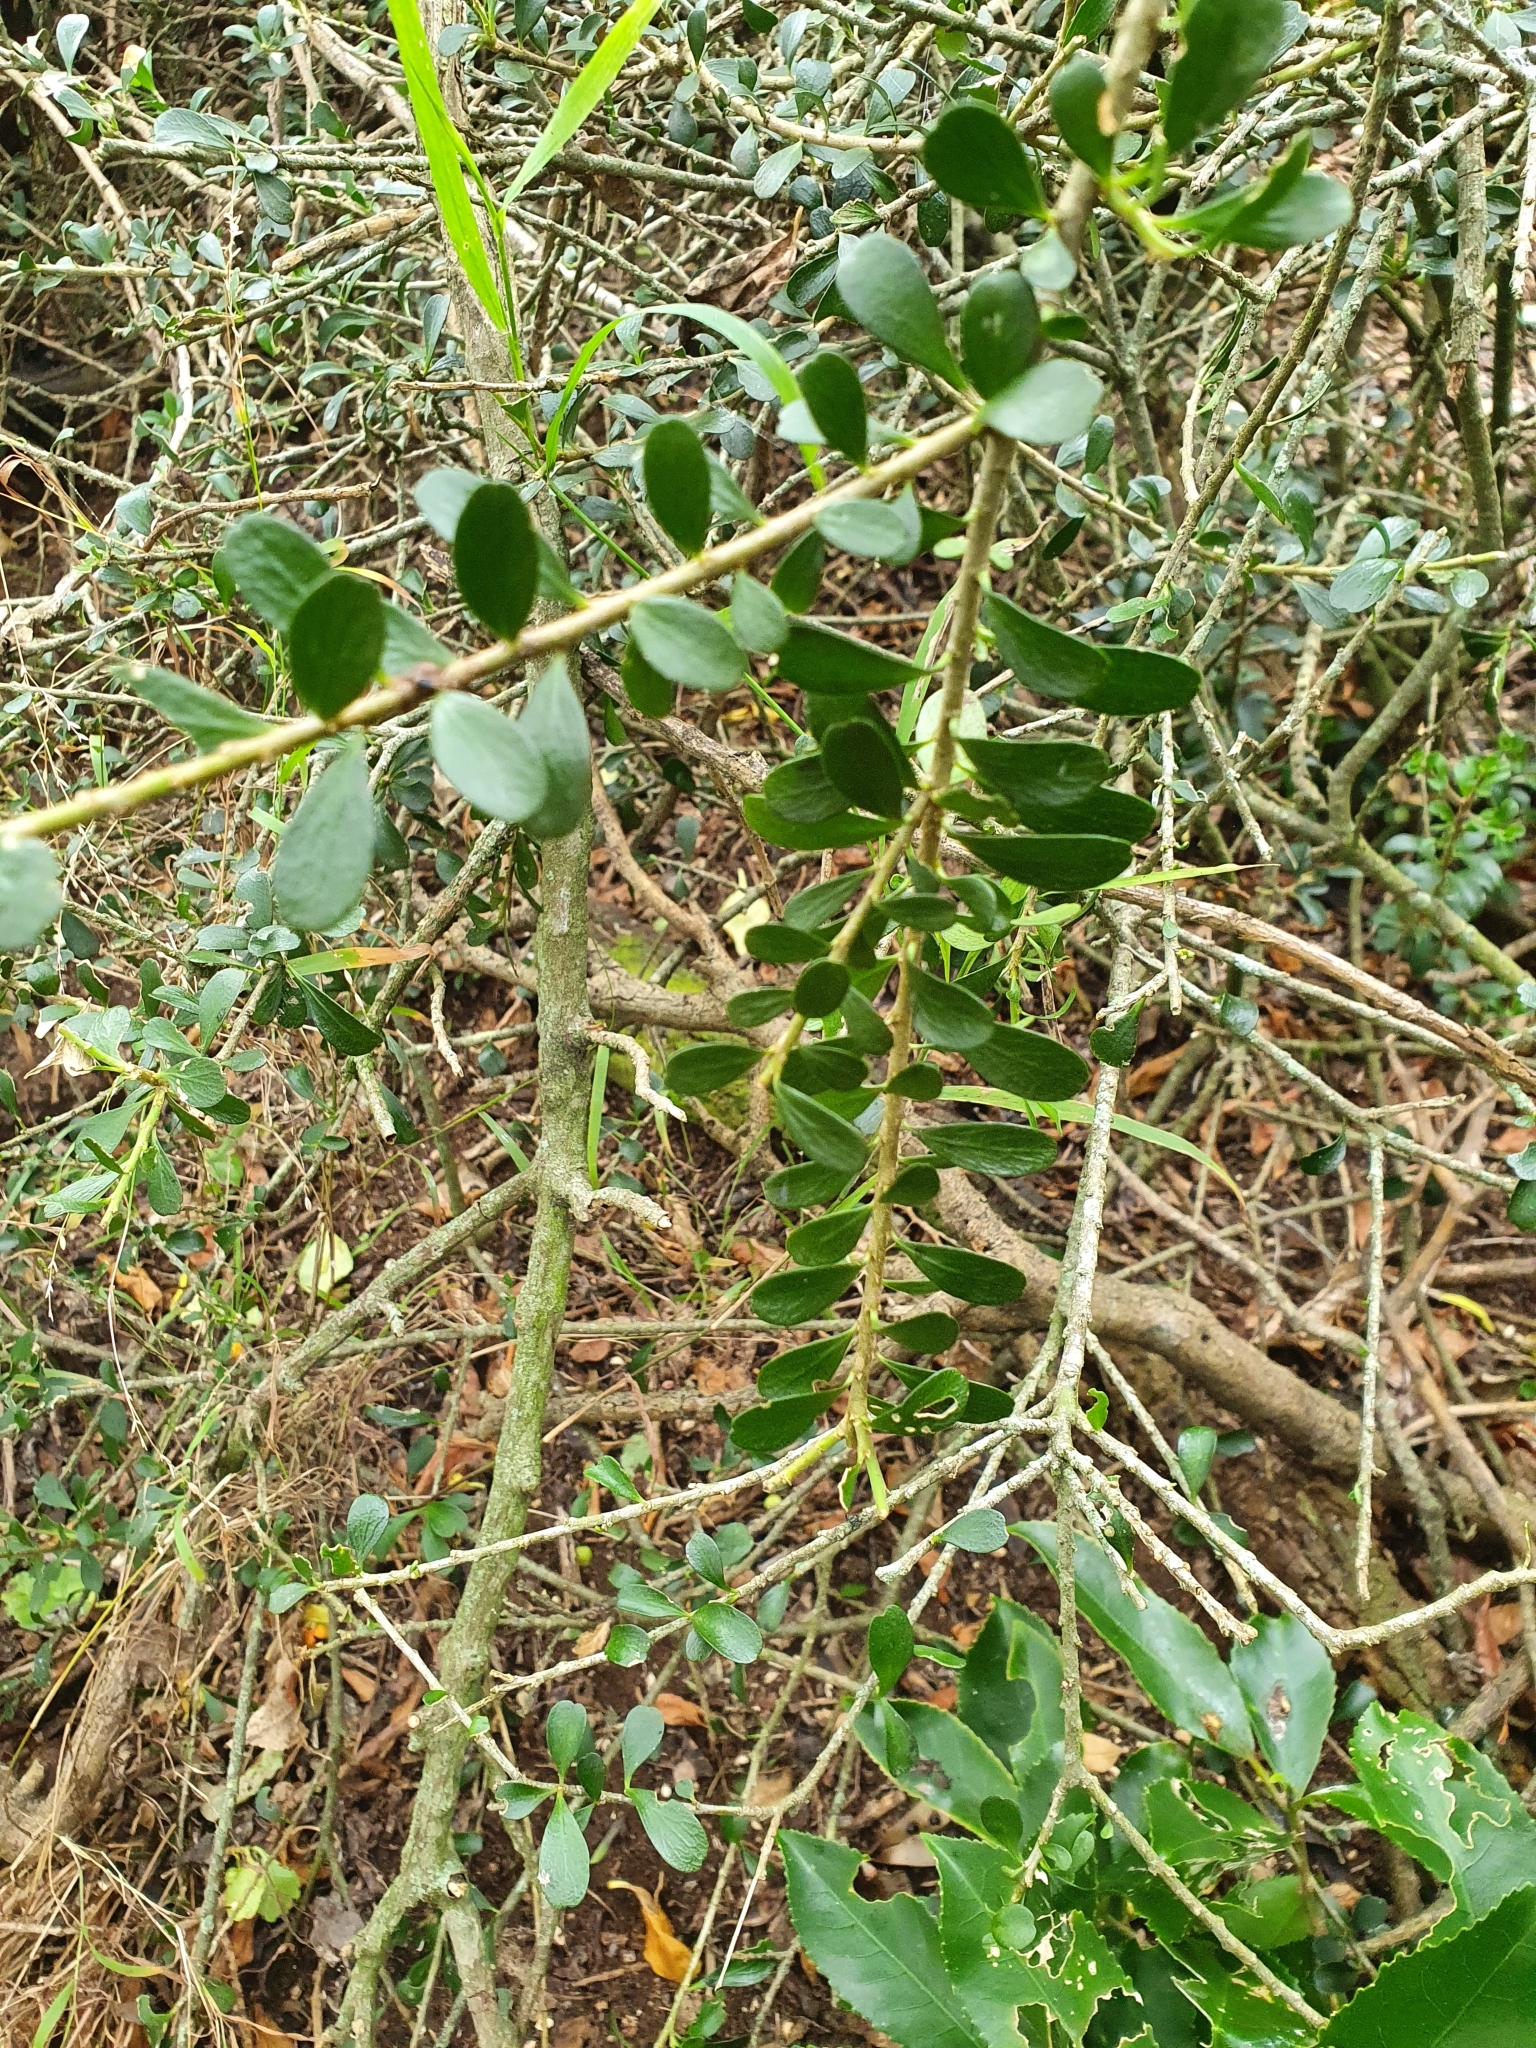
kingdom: Plantae
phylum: Tracheophyta
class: Magnoliopsida
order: Malpighiales
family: Violaceae
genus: Melicytus
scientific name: Melicytus crassifolius
